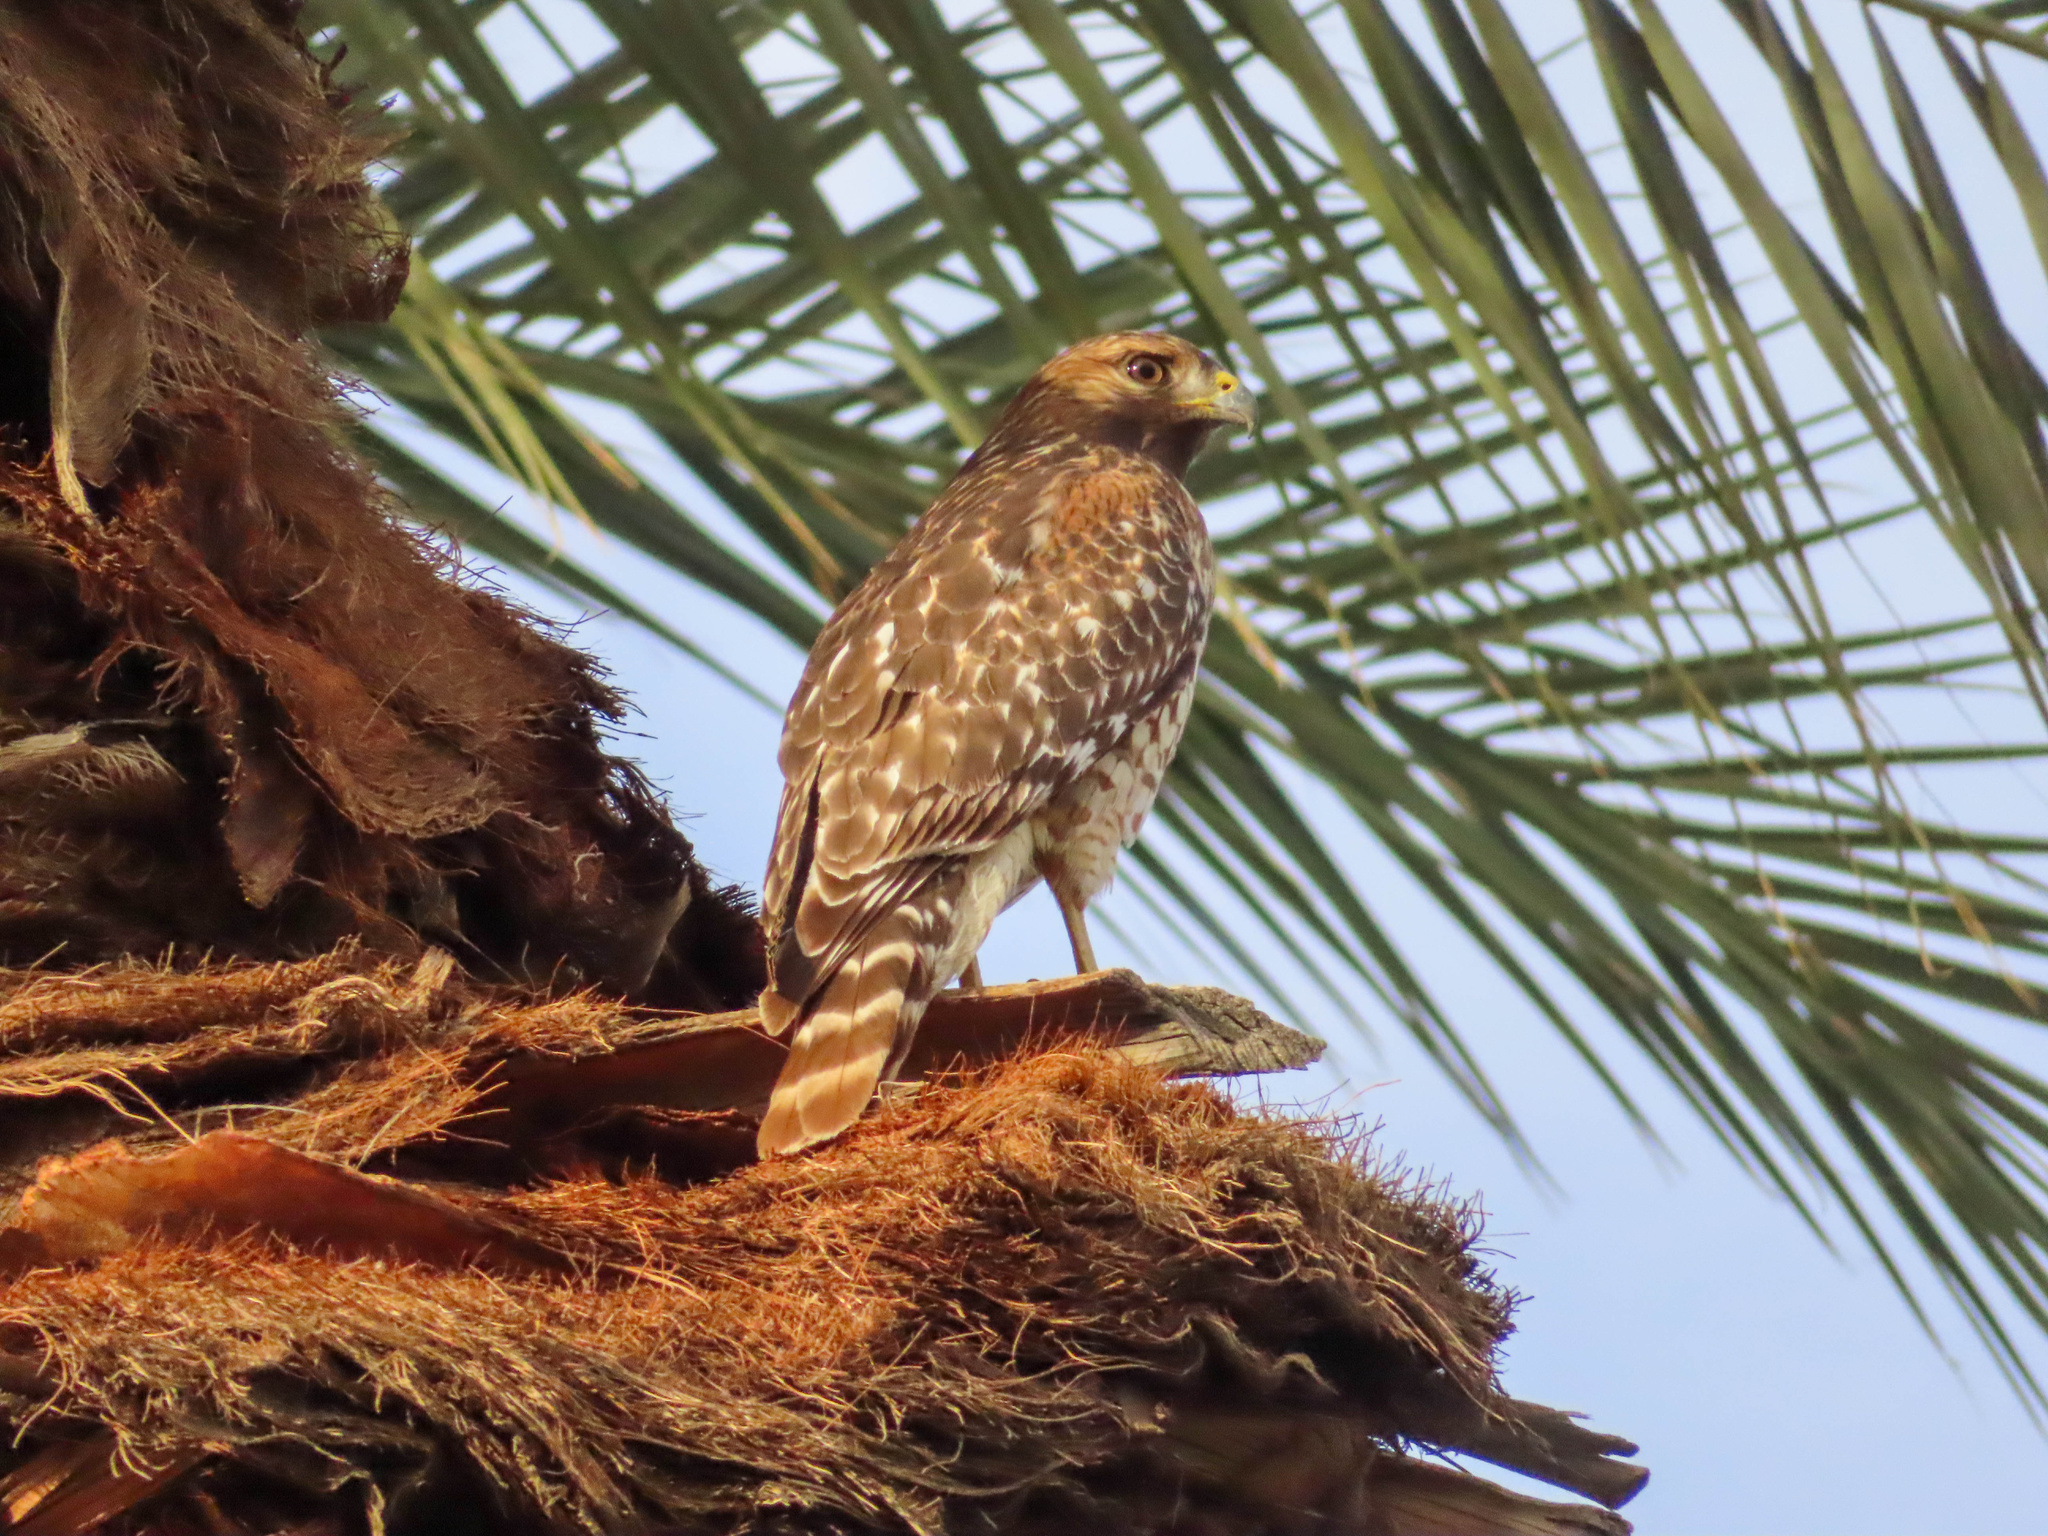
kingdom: Animalia
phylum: Chordata
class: Aves
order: Accipitriformes
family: Accipitridae
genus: Buteo
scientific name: Buteo lineatus
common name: Red-shouldered hawk
